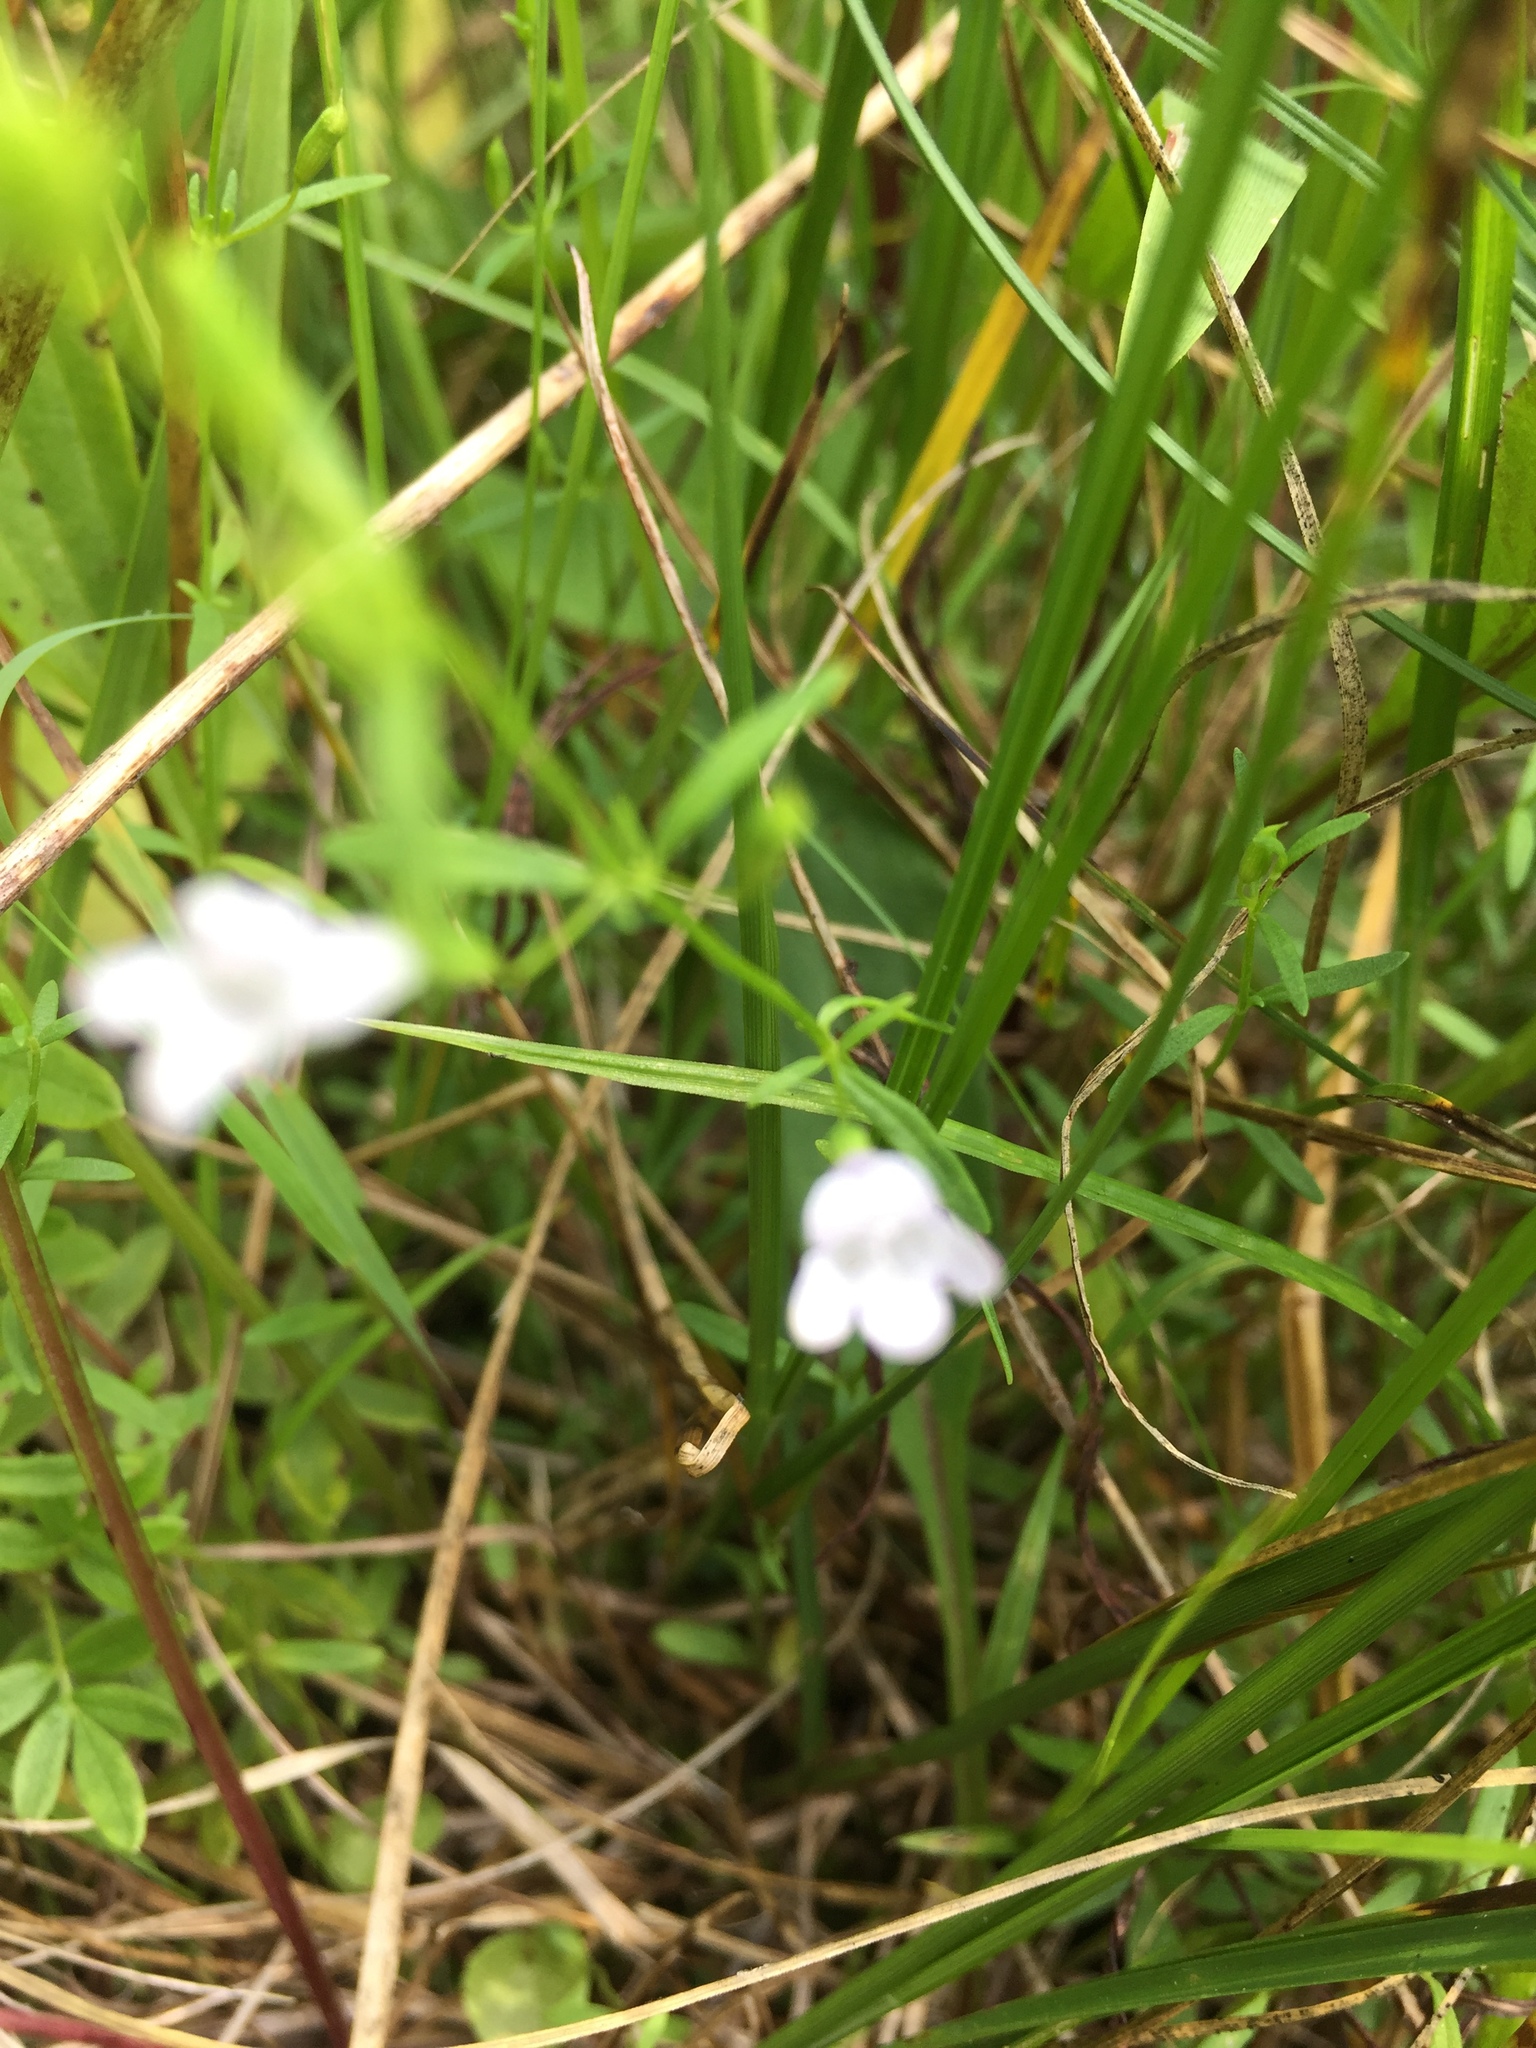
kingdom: Plantae
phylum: Tracheophyta
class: Magnoliopsida
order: Lamiales
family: Lamiaceae
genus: Clinopodium
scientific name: Clinopodium arkansanum
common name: Limestone calamint
